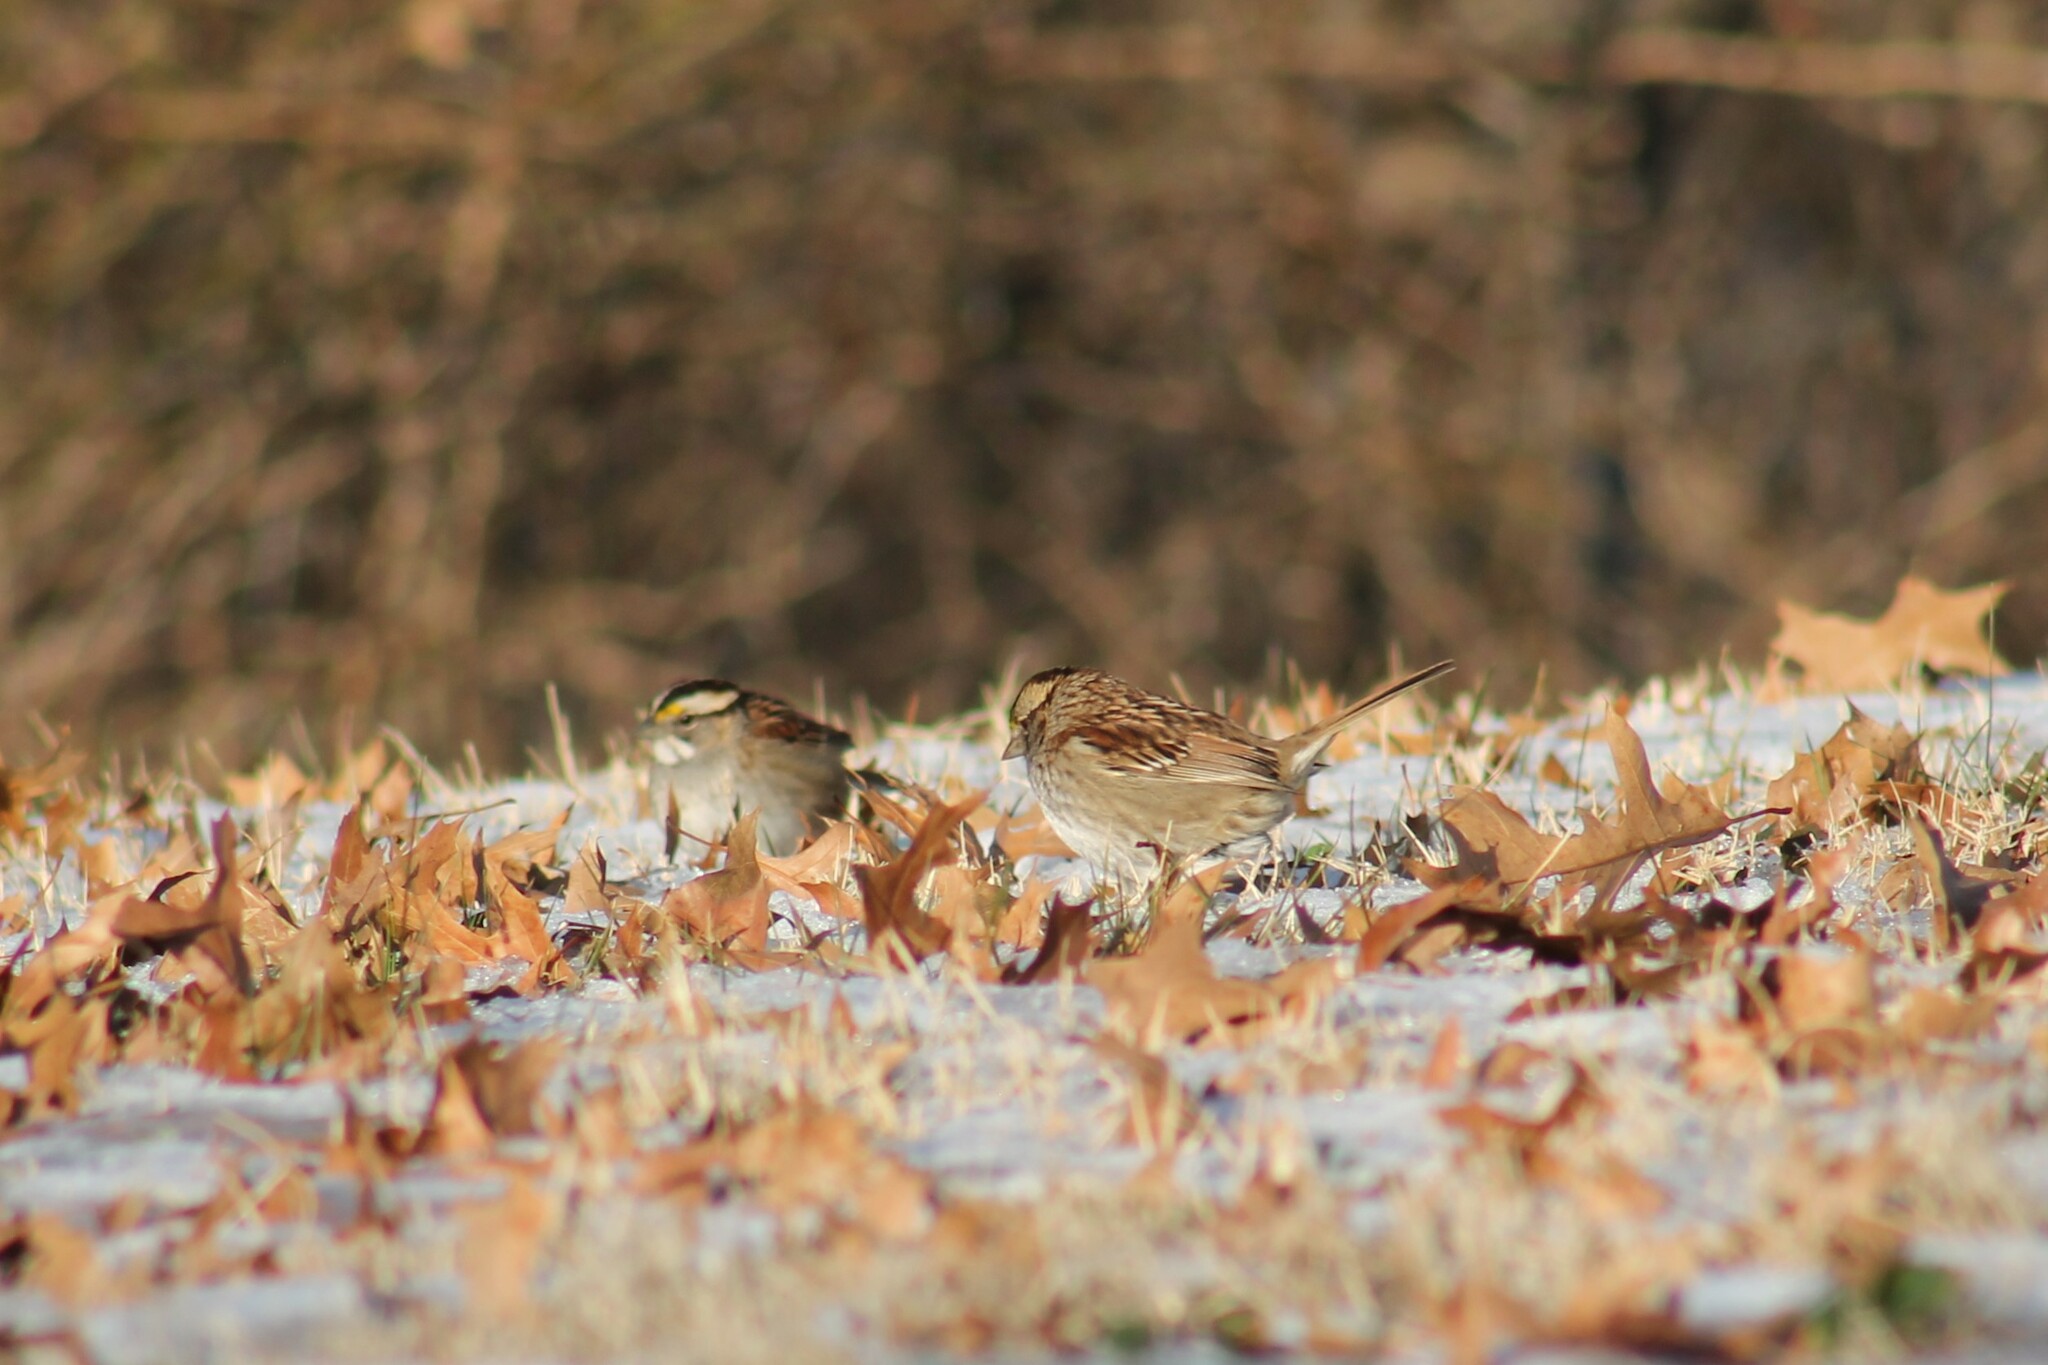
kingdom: Animalia
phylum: Chordata
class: Aves
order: Passeriformes
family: Passerellidae
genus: Zonotrichia
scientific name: Zonotrichia albicollis
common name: White-throated sparrow
